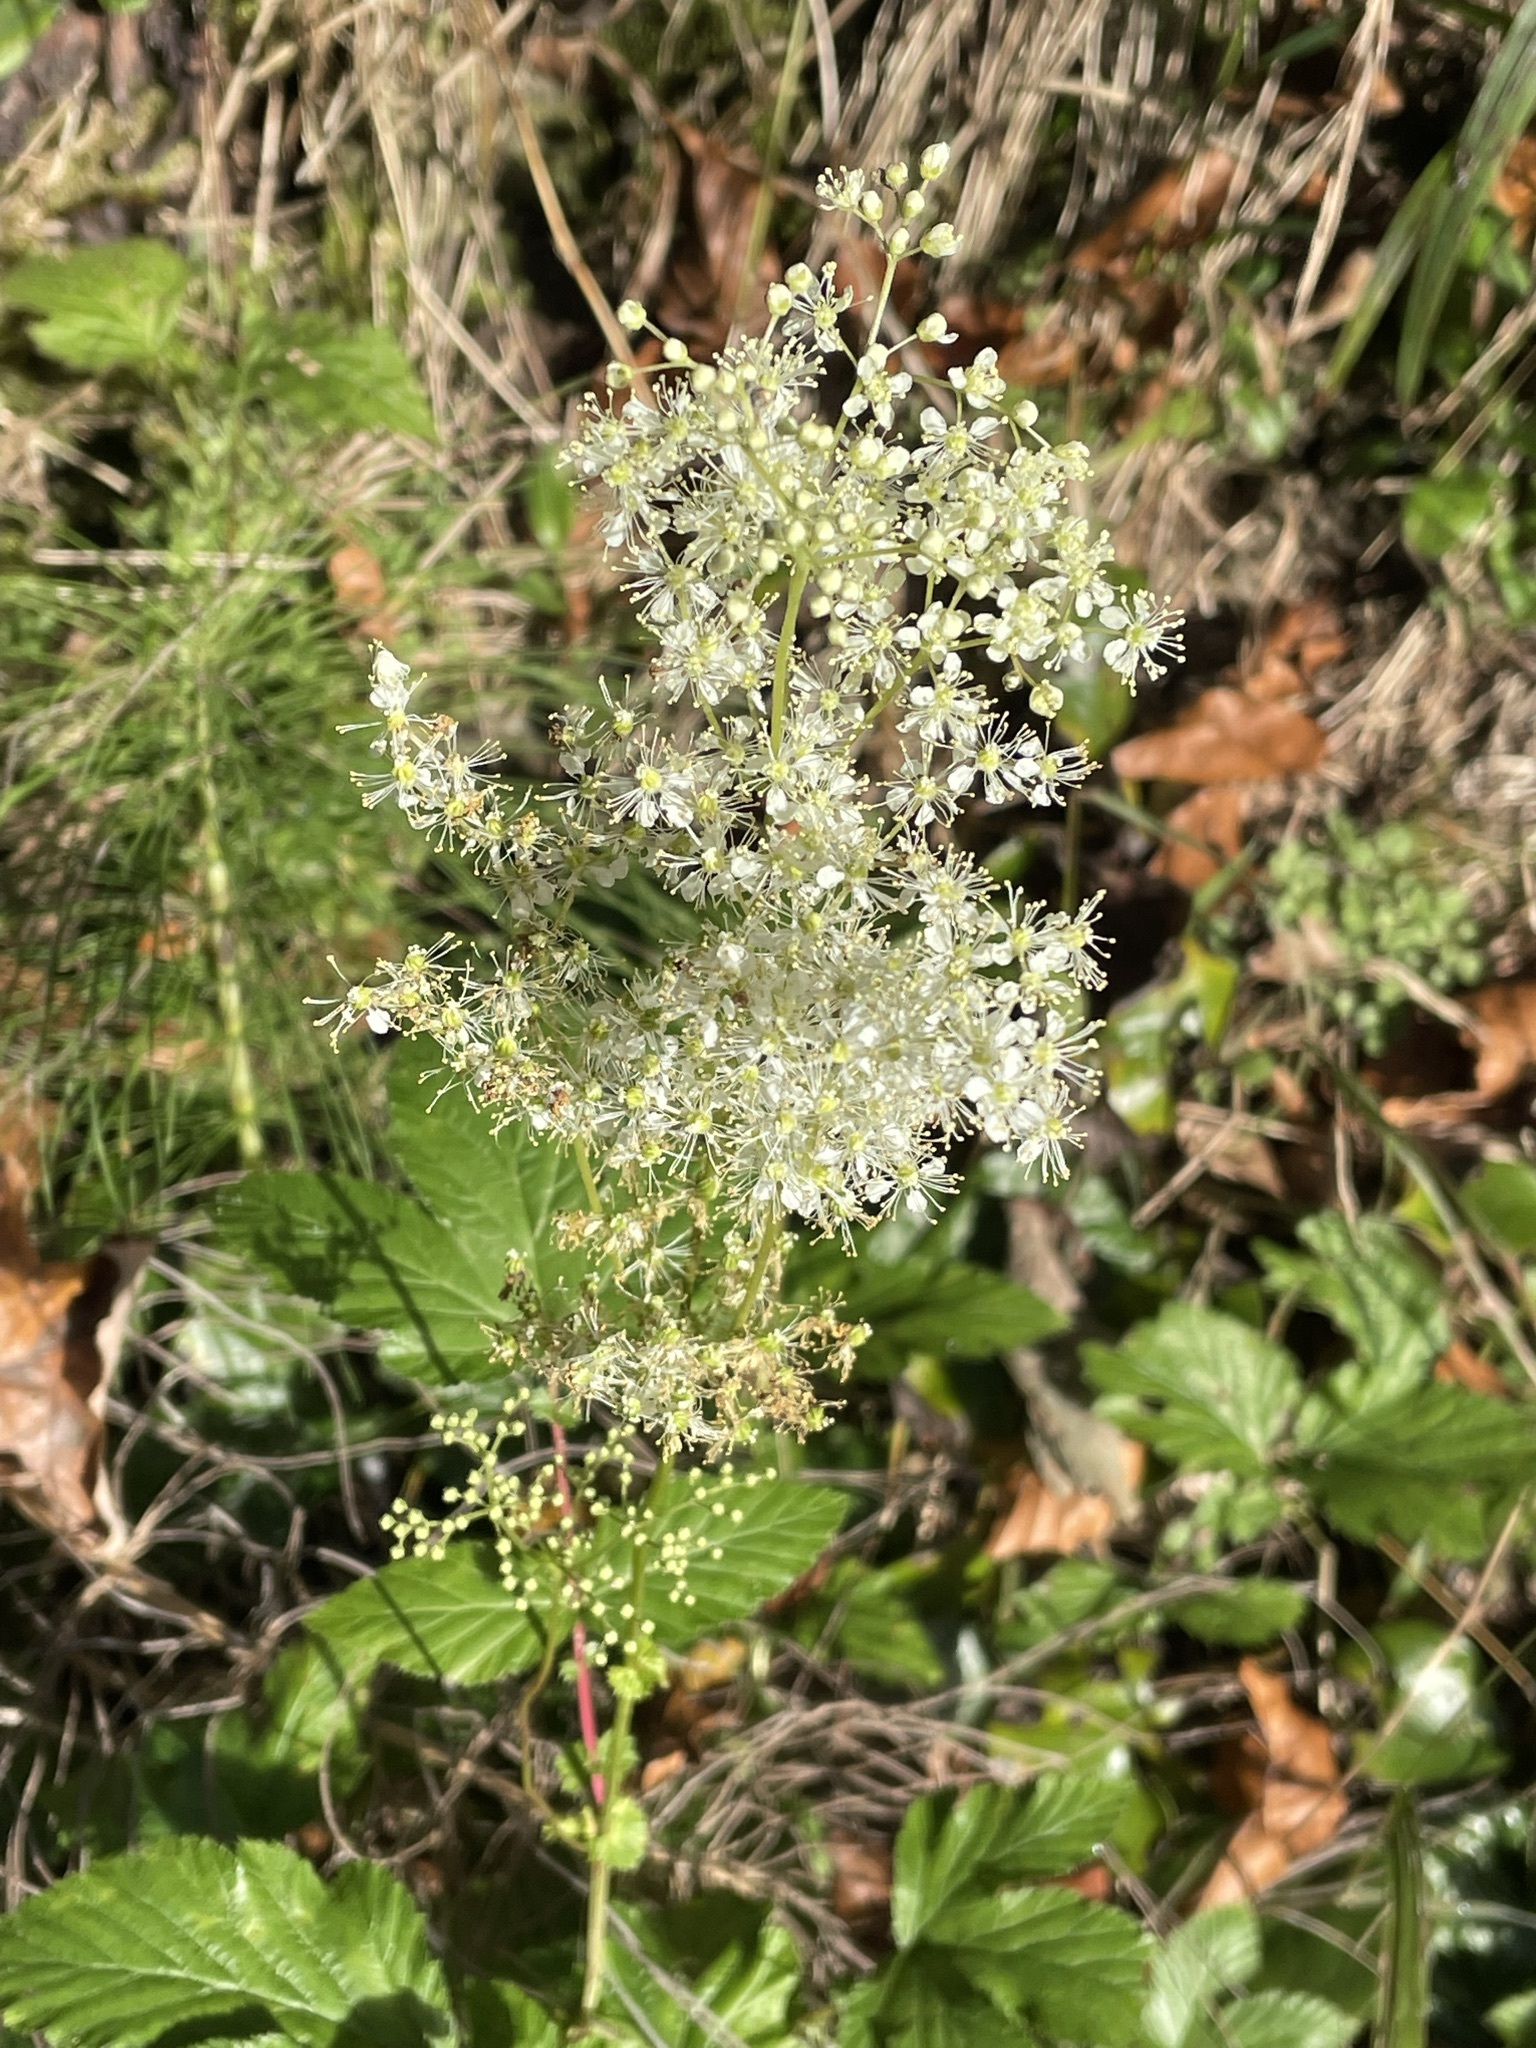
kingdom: Plantae
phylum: Tracheophyta
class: Magnoliopsida
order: Rosales
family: Rosaceae
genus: Filipendula
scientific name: Filipendula ulmaria
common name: Meadowsweet
